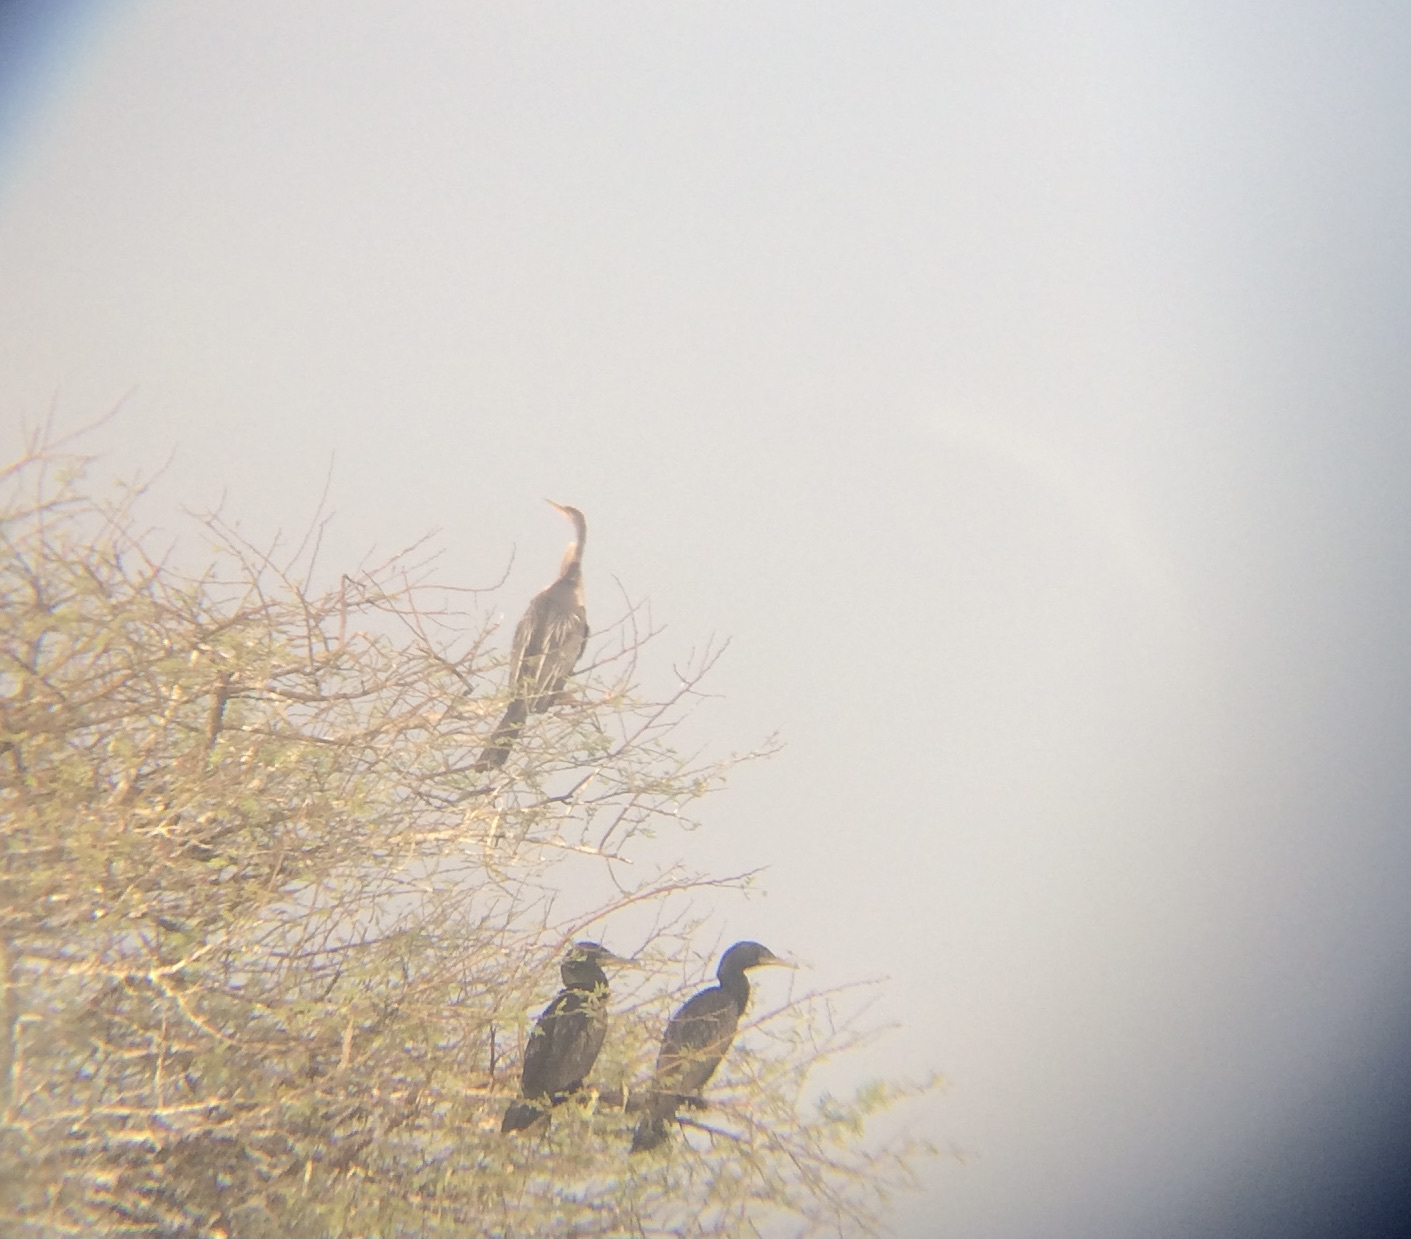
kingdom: Animalia
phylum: Chordata
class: Aves
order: Suliformes
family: Anhingidae
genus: Anhinga
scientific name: Anhinga melanogaster
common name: Oriental darter
